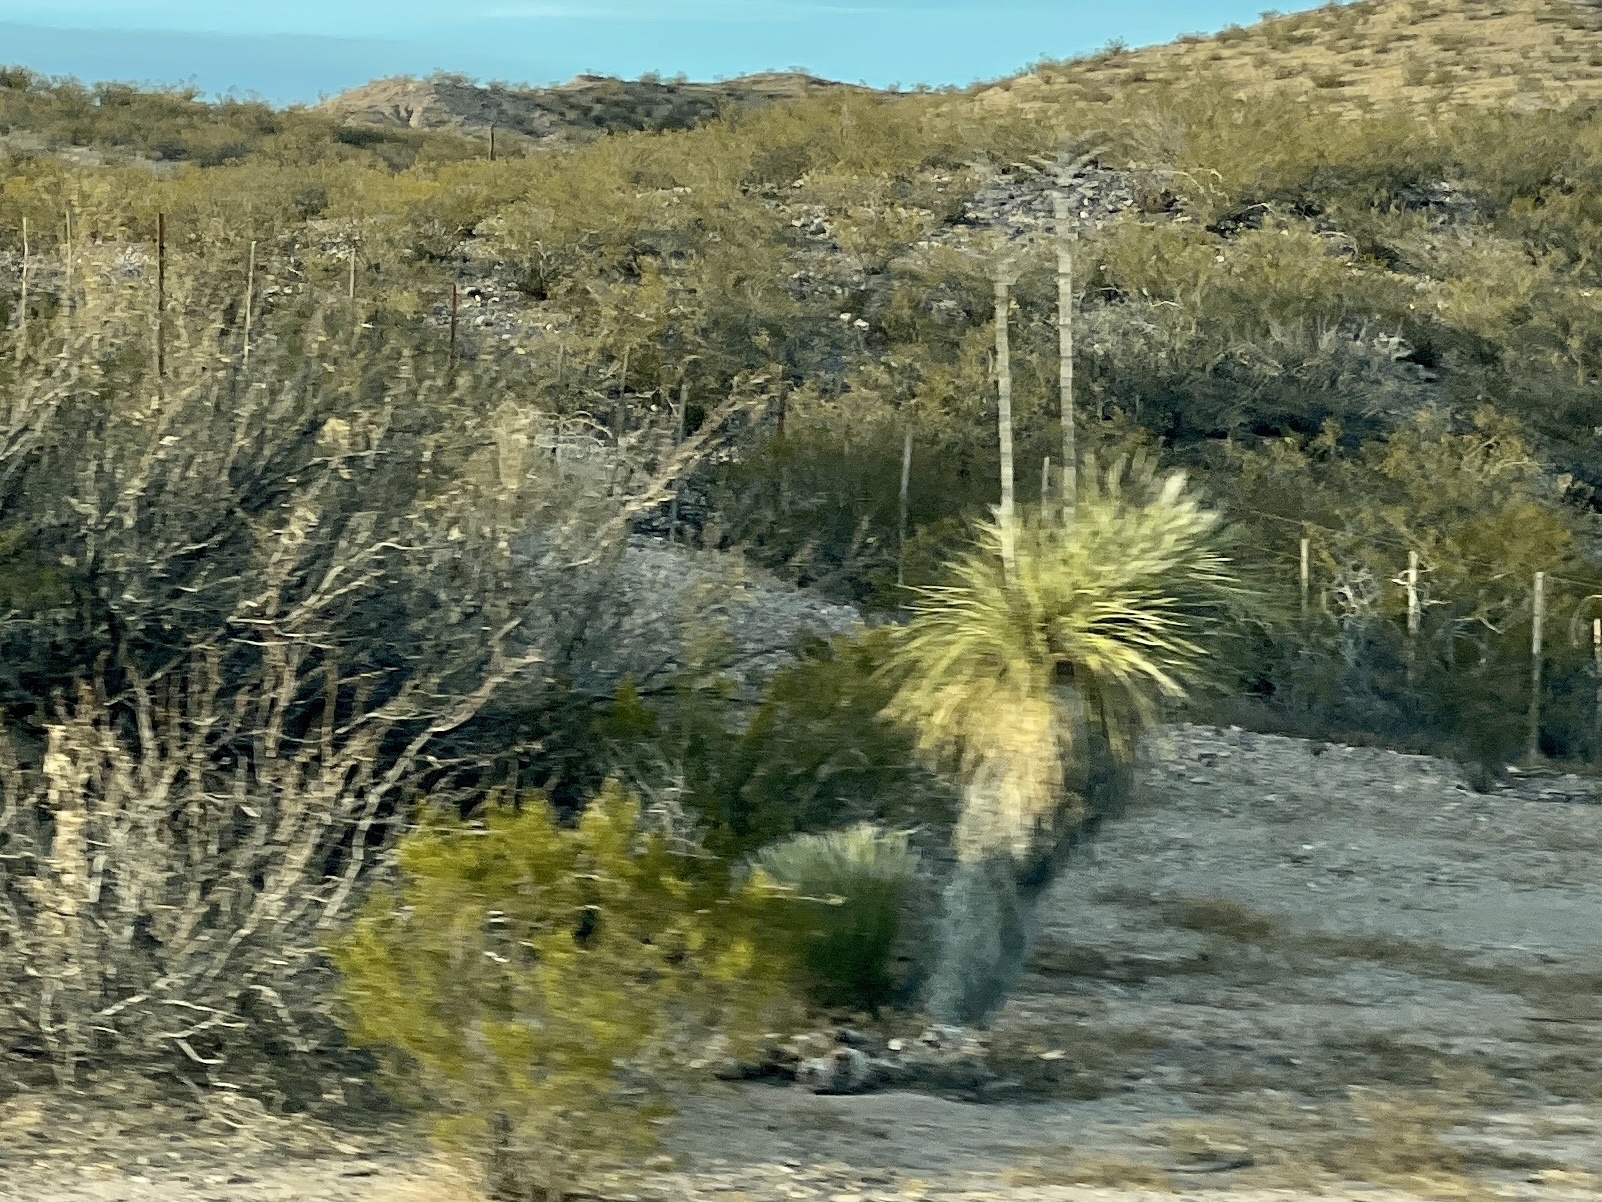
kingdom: Plantae
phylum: Tracheophyta
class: Liliopsida
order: Asparagales
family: Asparagaceae
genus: Yucca
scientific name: Yucca elata
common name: Palmella
